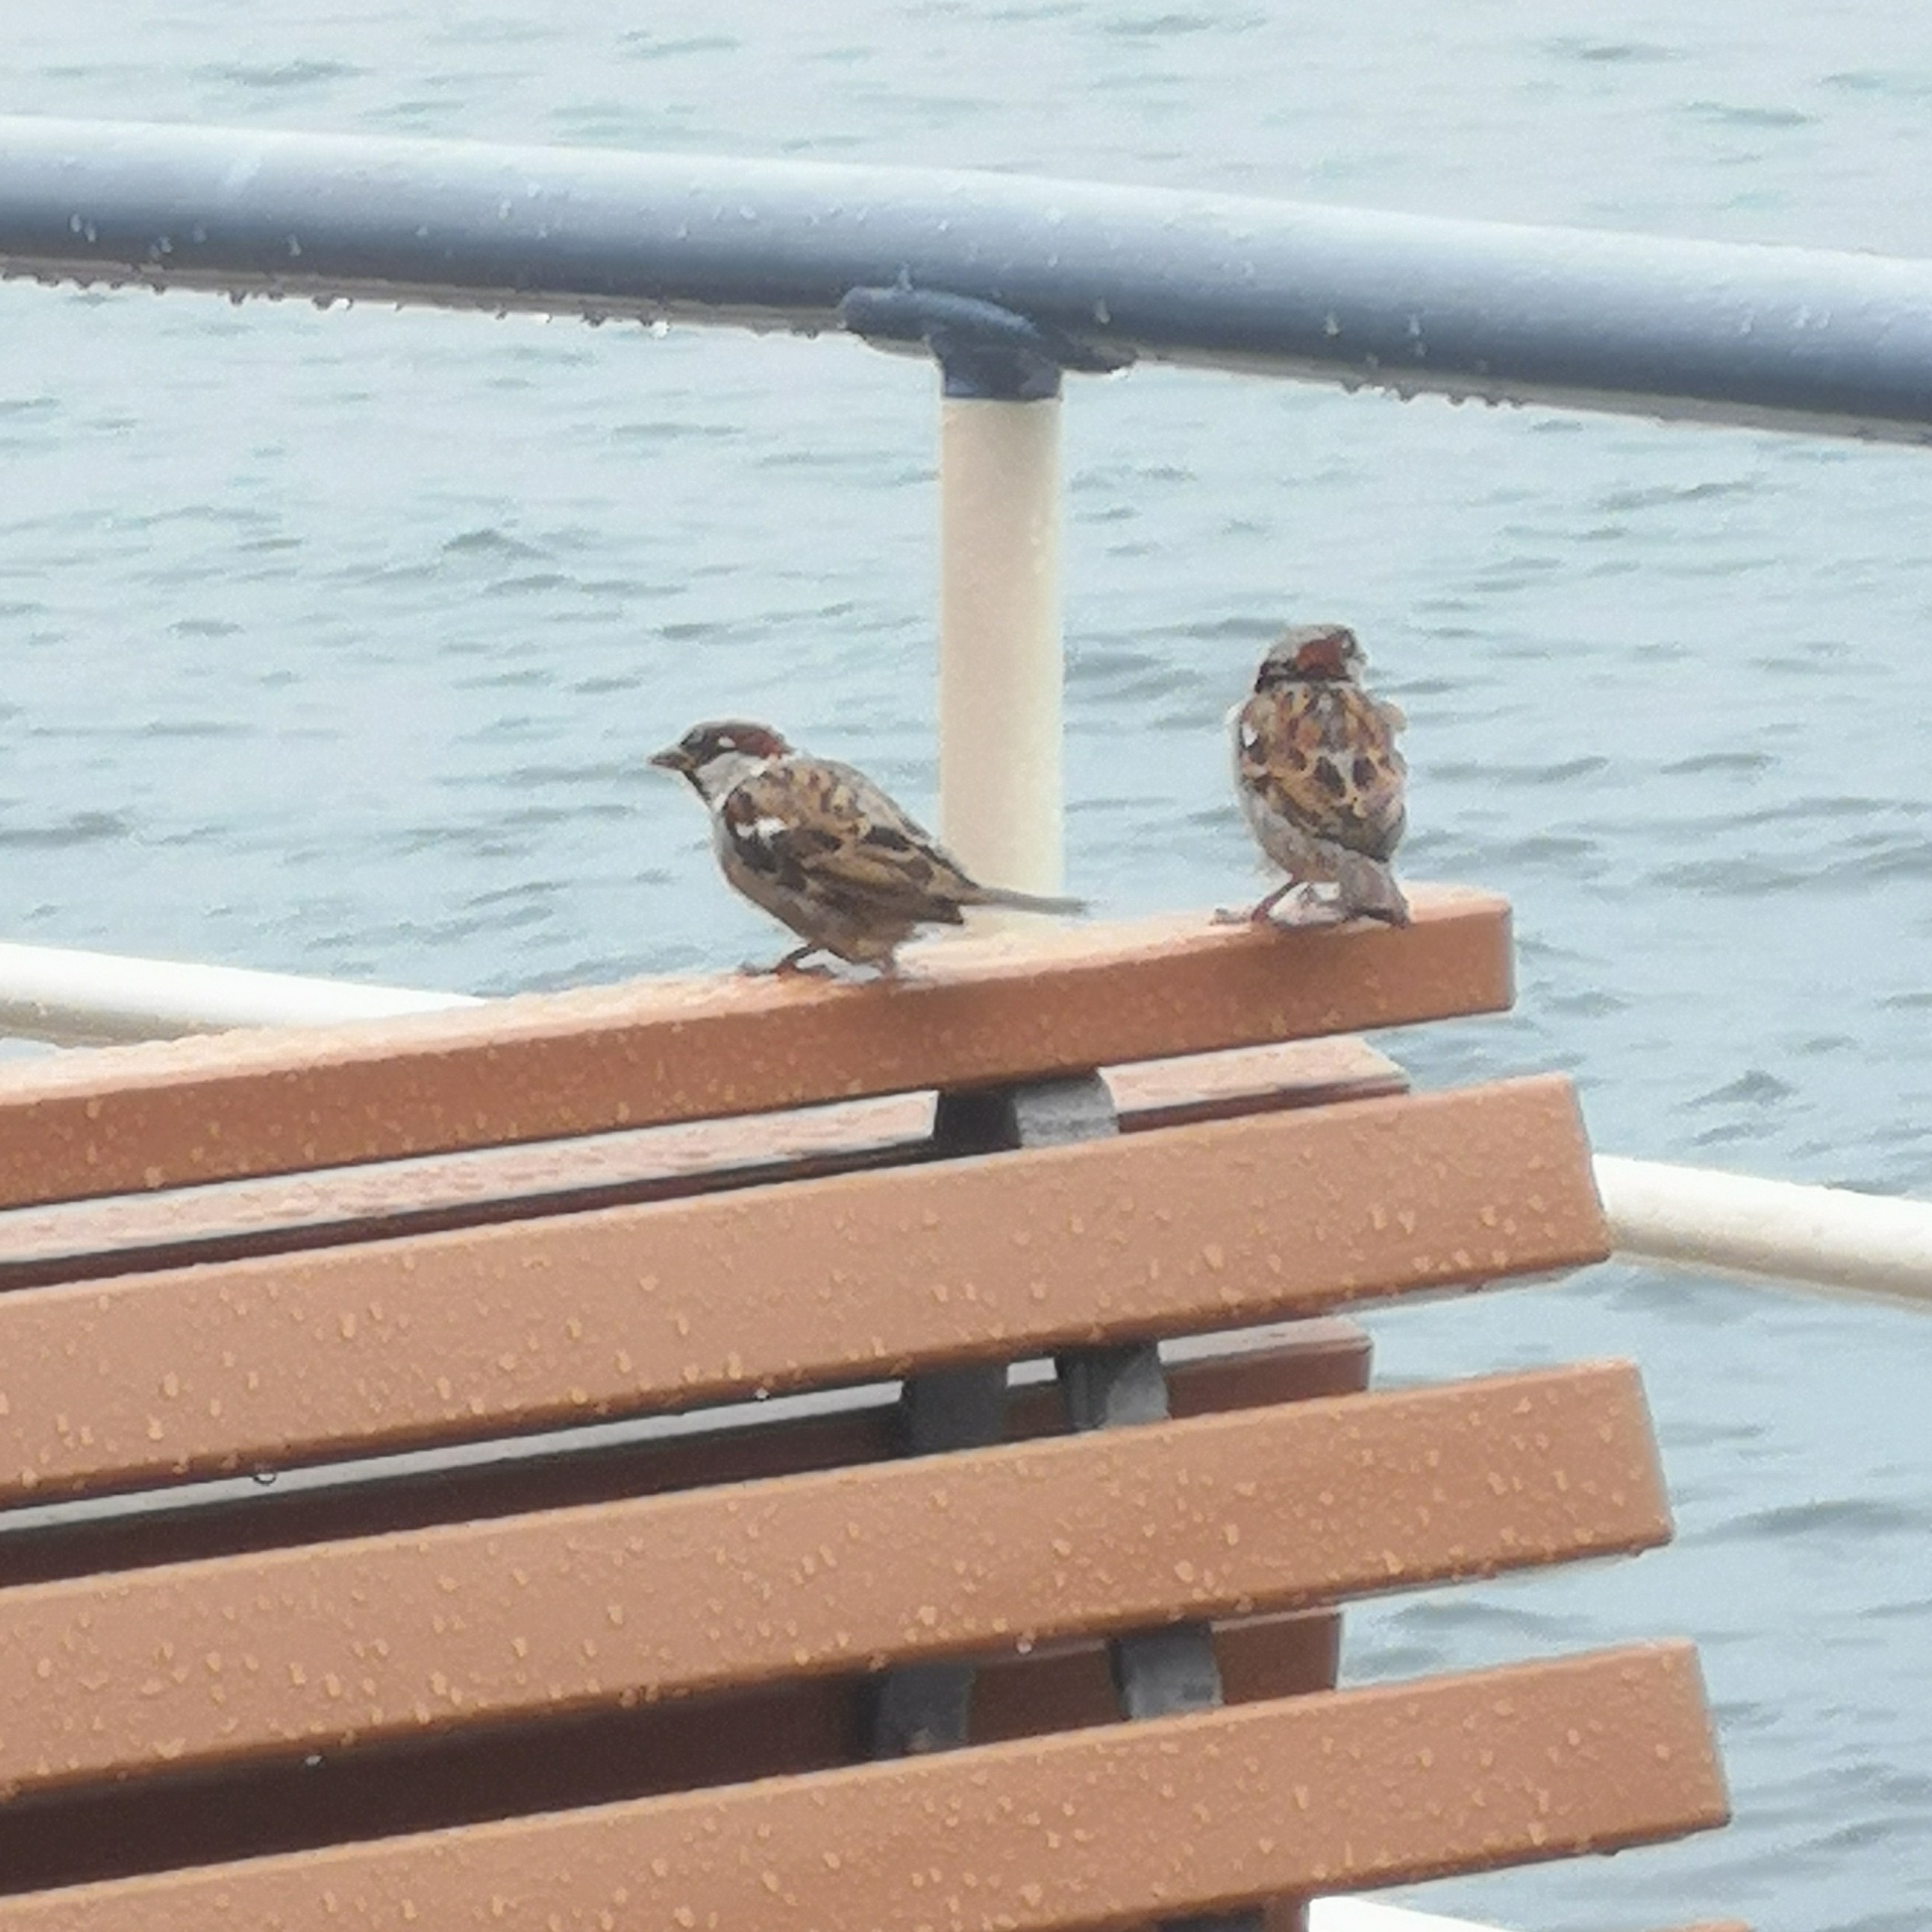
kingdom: Animalia
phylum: Chordata
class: Aves
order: Passeriformes
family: Passeridae
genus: Passer
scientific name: Passer domesticus
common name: House sparrow
